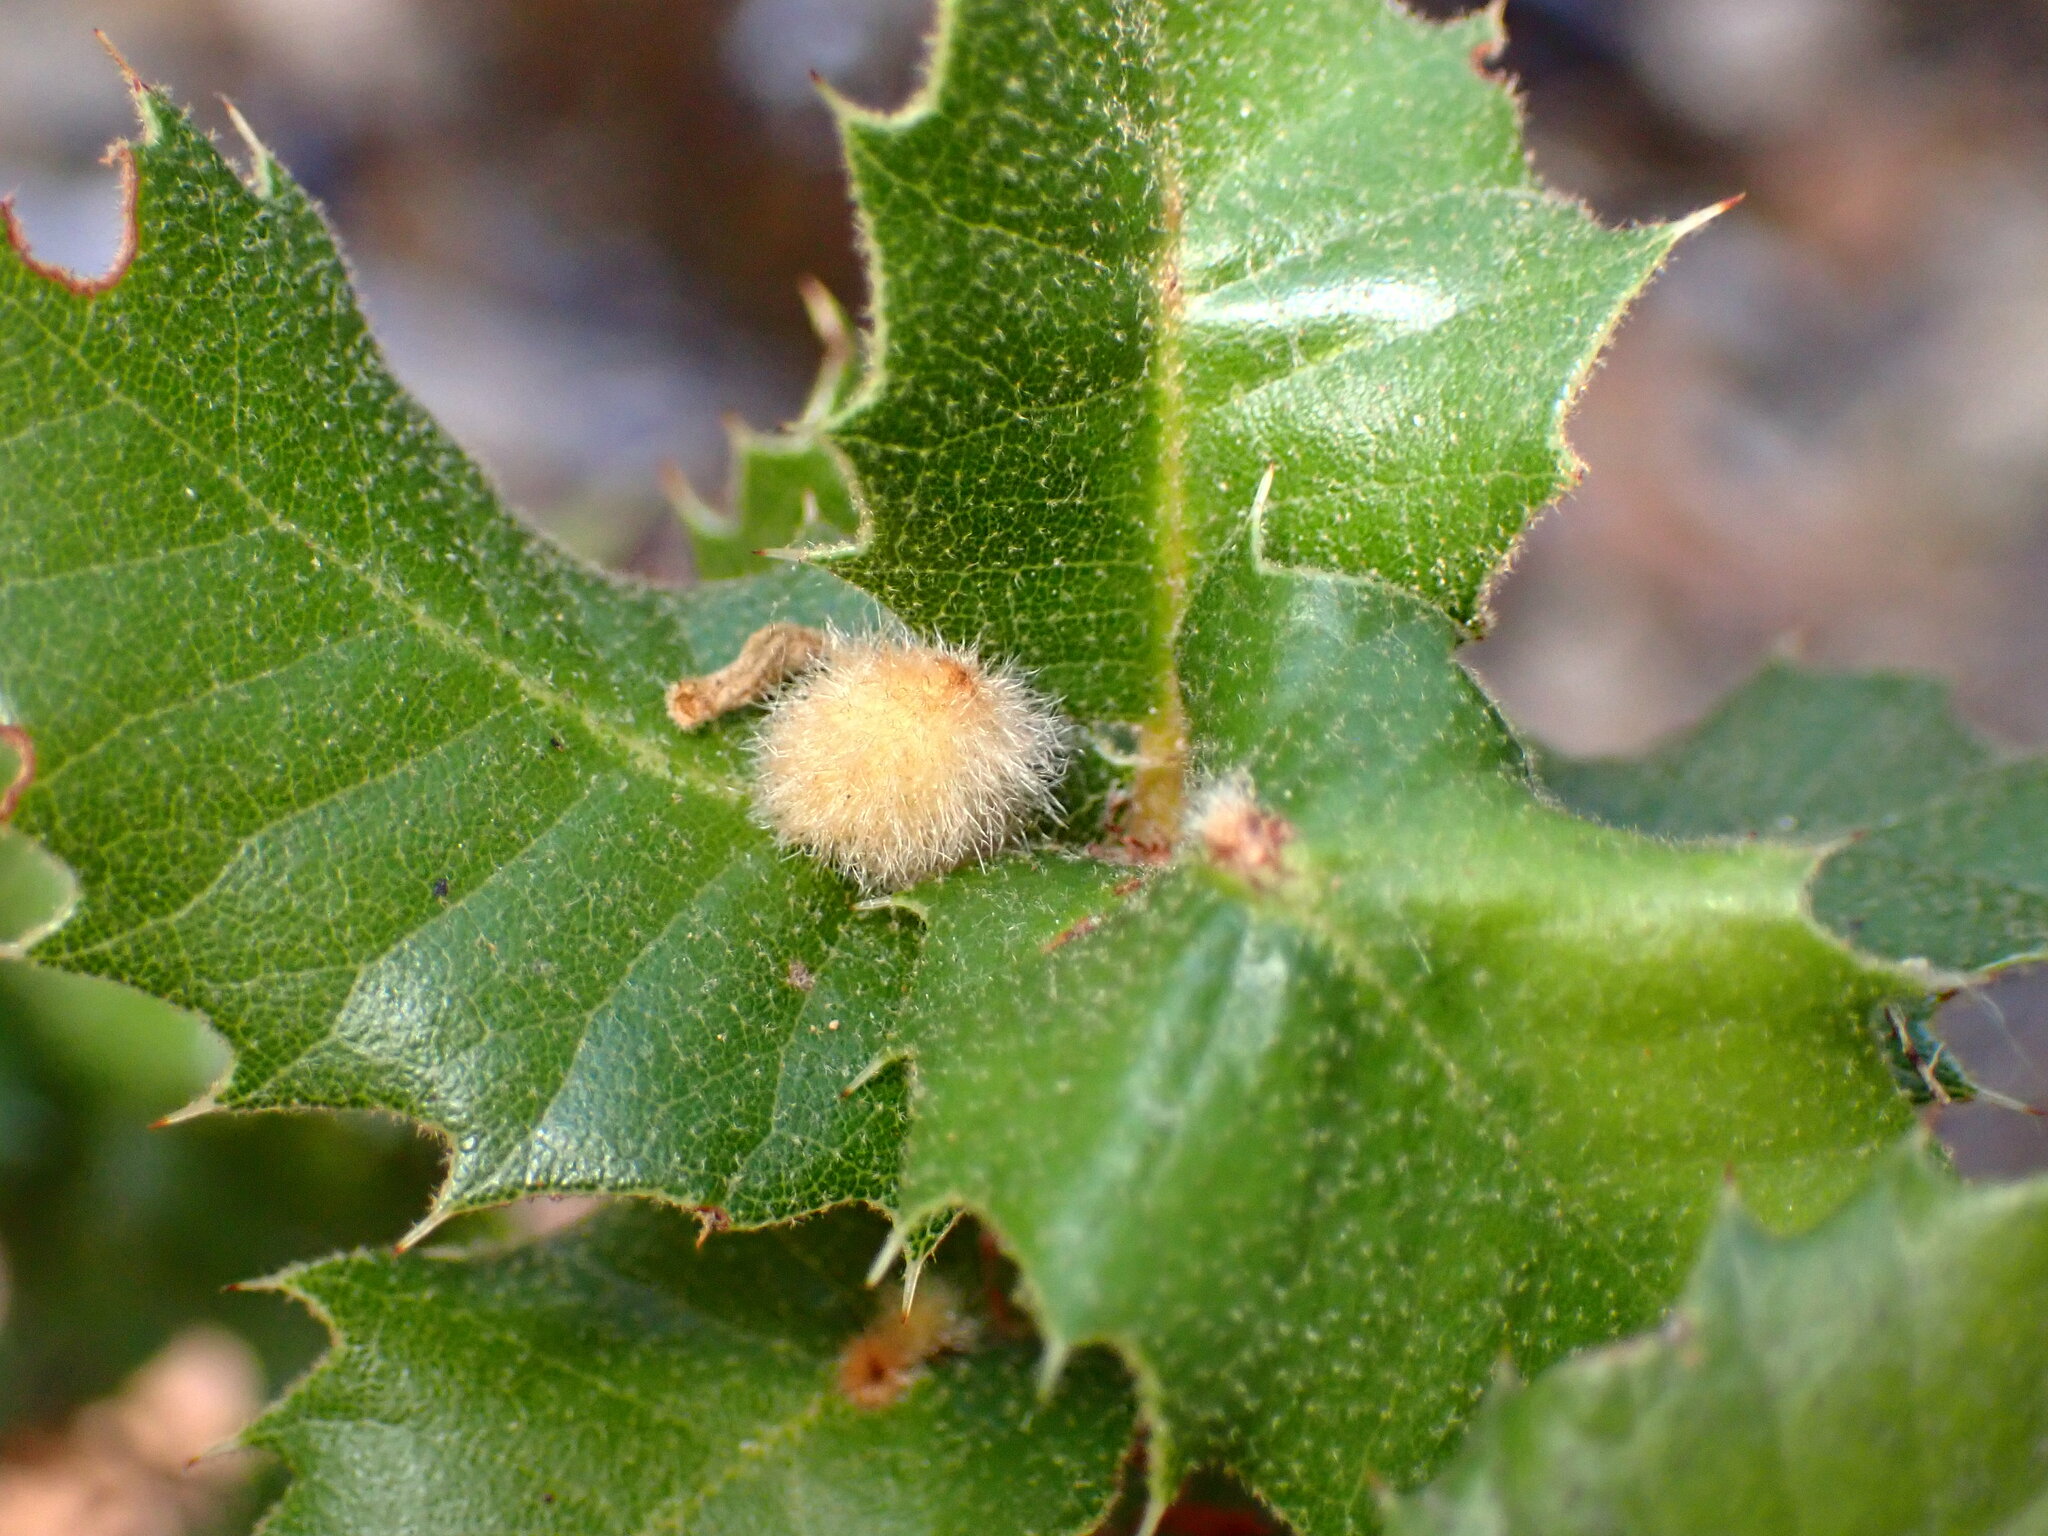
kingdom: Animalia
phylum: Arthropoda
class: Insecta
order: Hymenoptera
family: Cynipidae
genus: Disholandricus
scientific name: Disholandricus
